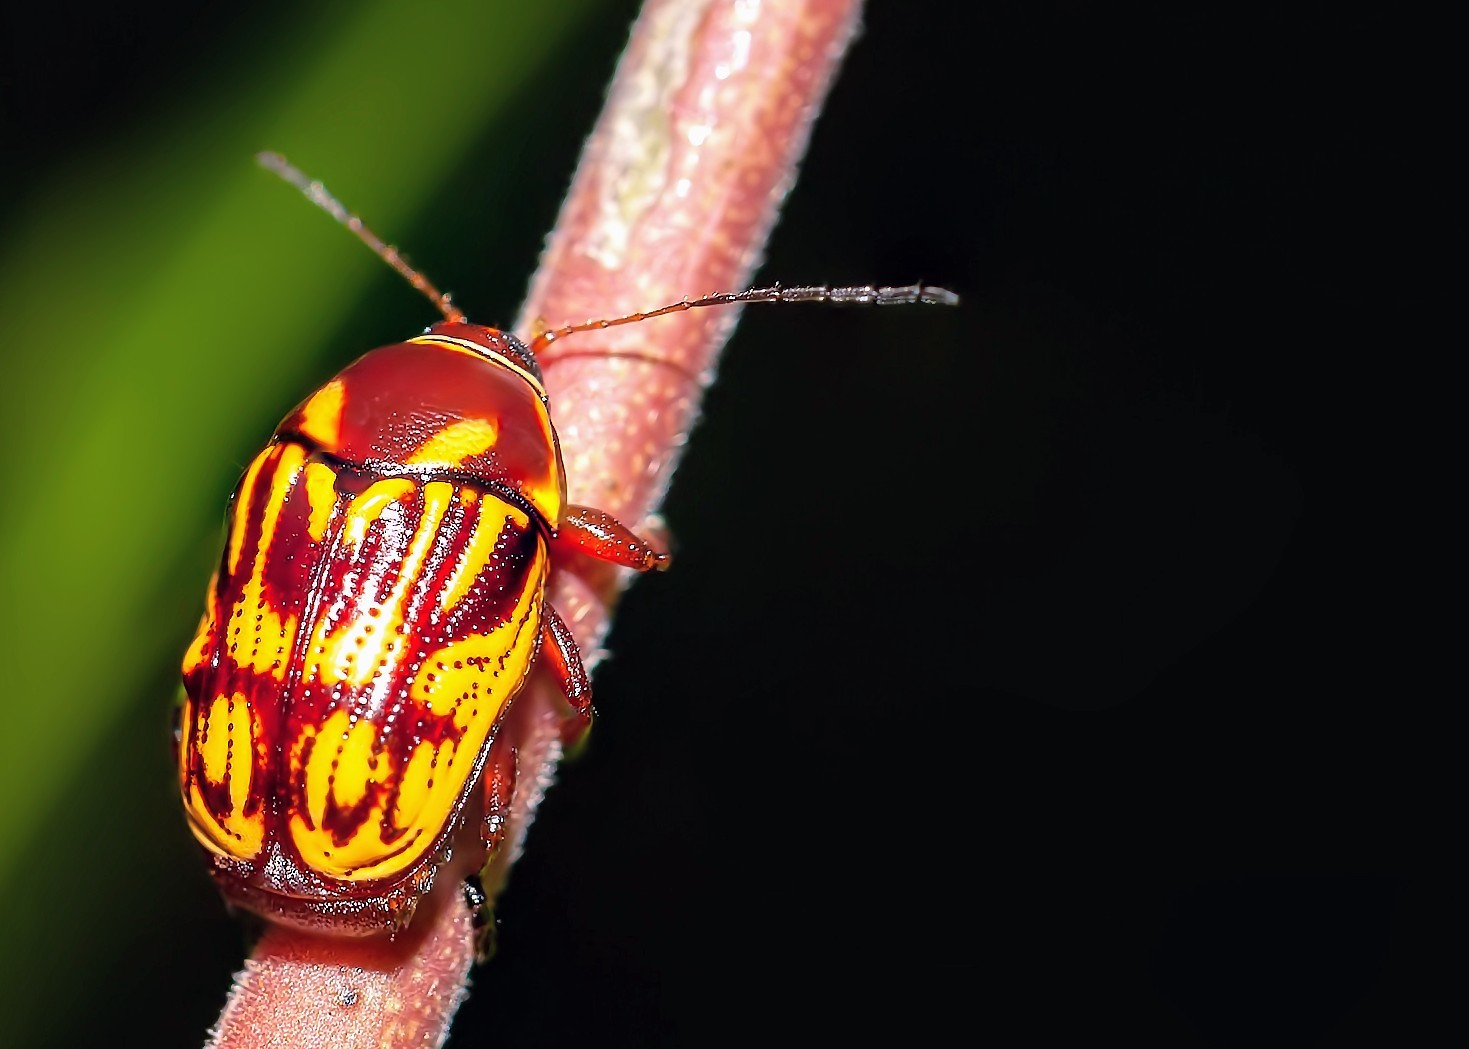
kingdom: Animalia
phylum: Arthropoda
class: Insecta
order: Coleoptera
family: Chrysomelidae
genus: Bassareus
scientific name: Bassareus brunnipes
